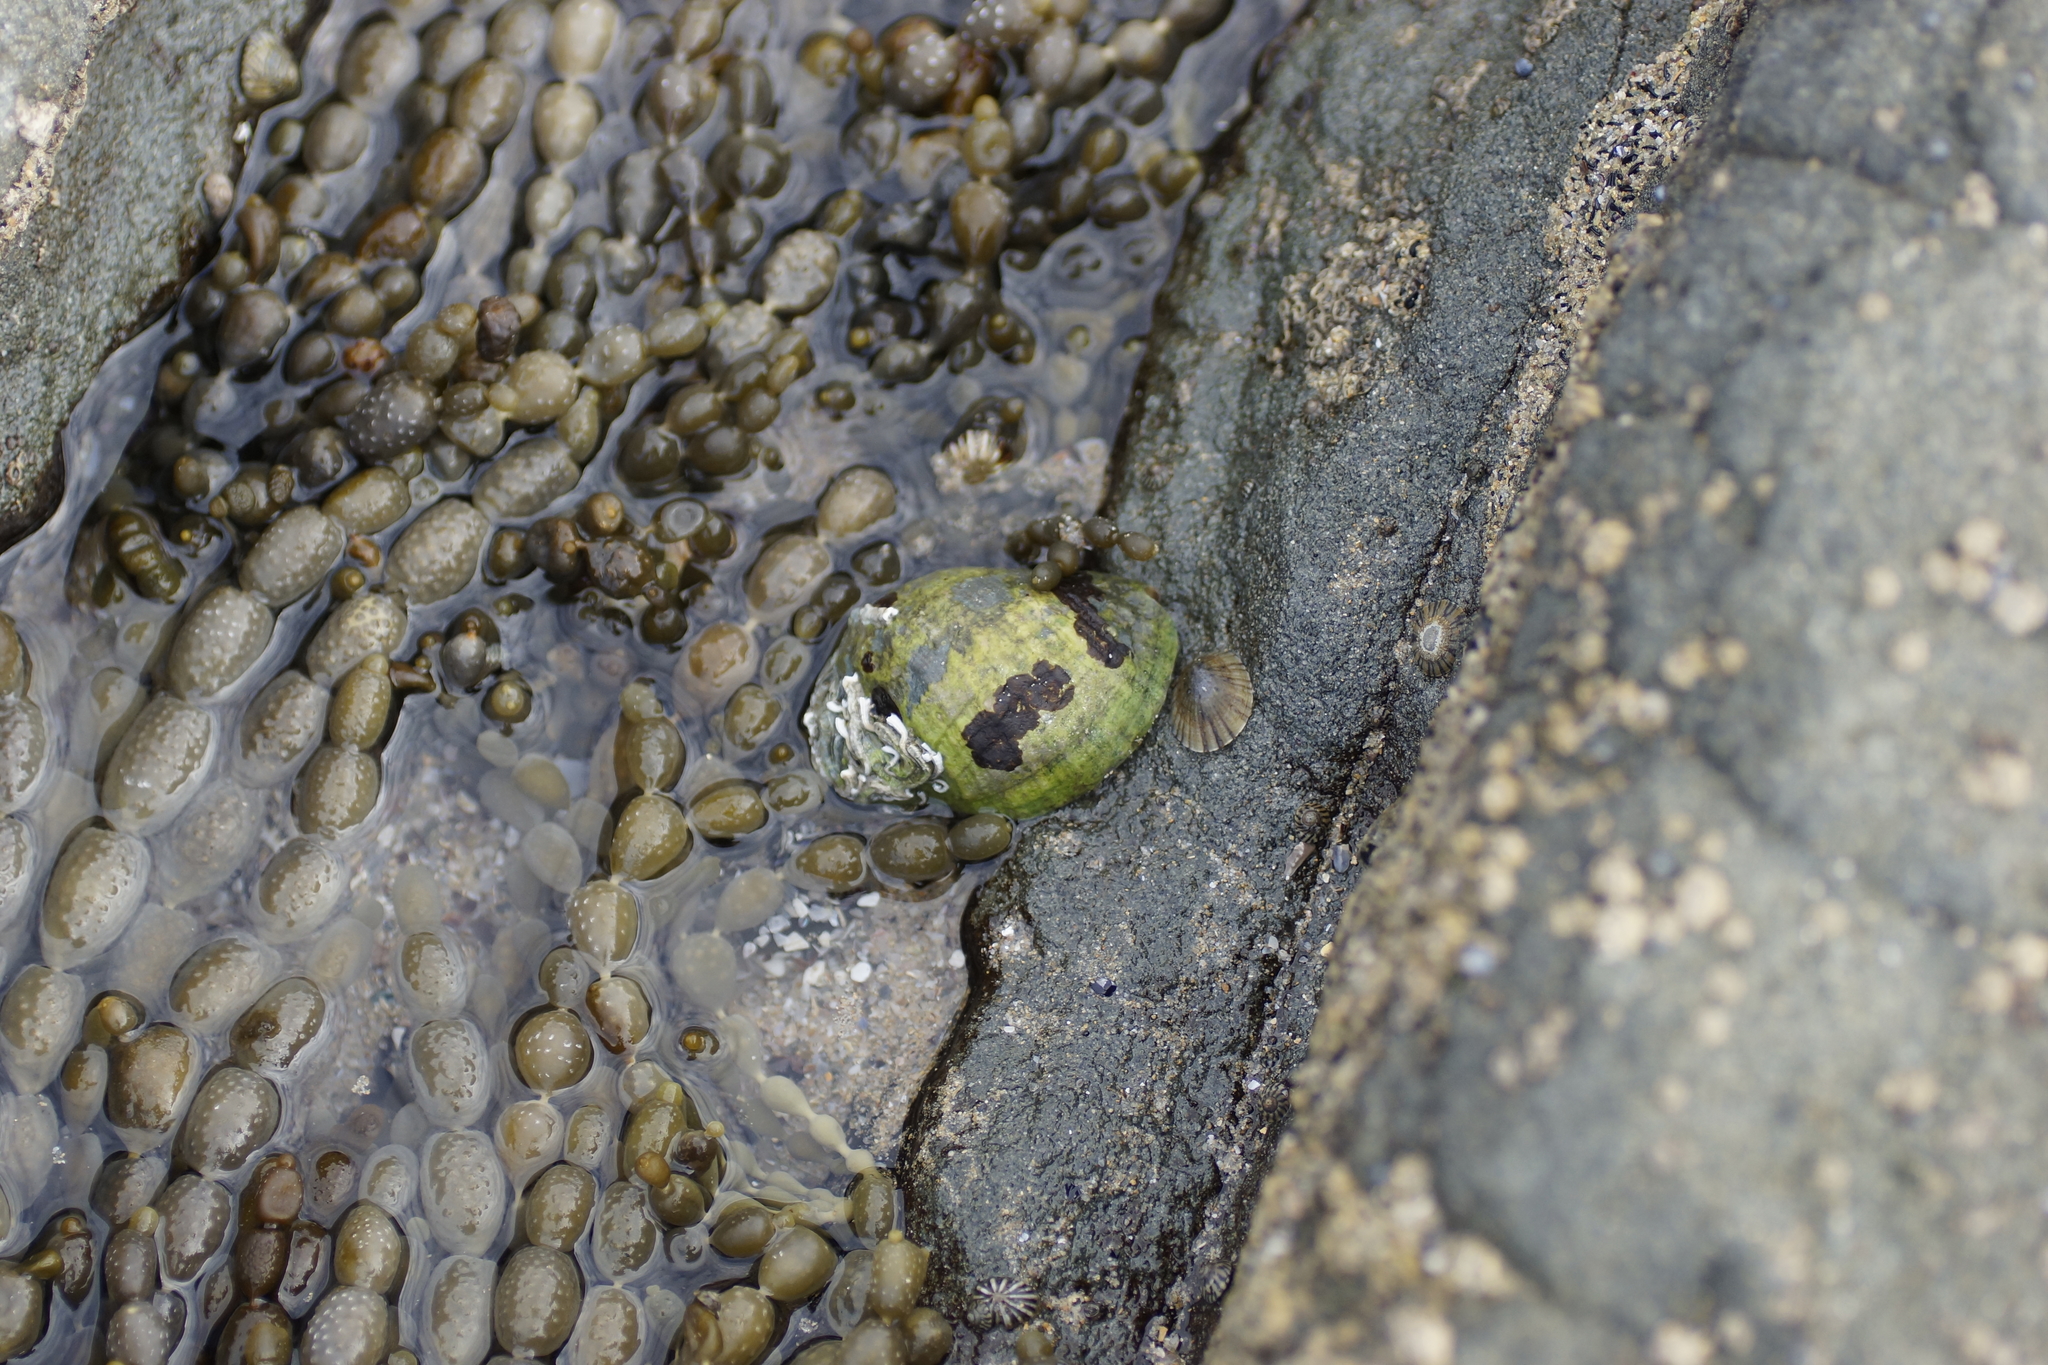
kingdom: Animalia
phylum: Mollusca
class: Gastropoda
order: Neogastropoda
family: Muricidae
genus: Dicathais
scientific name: Dicathais orbita
